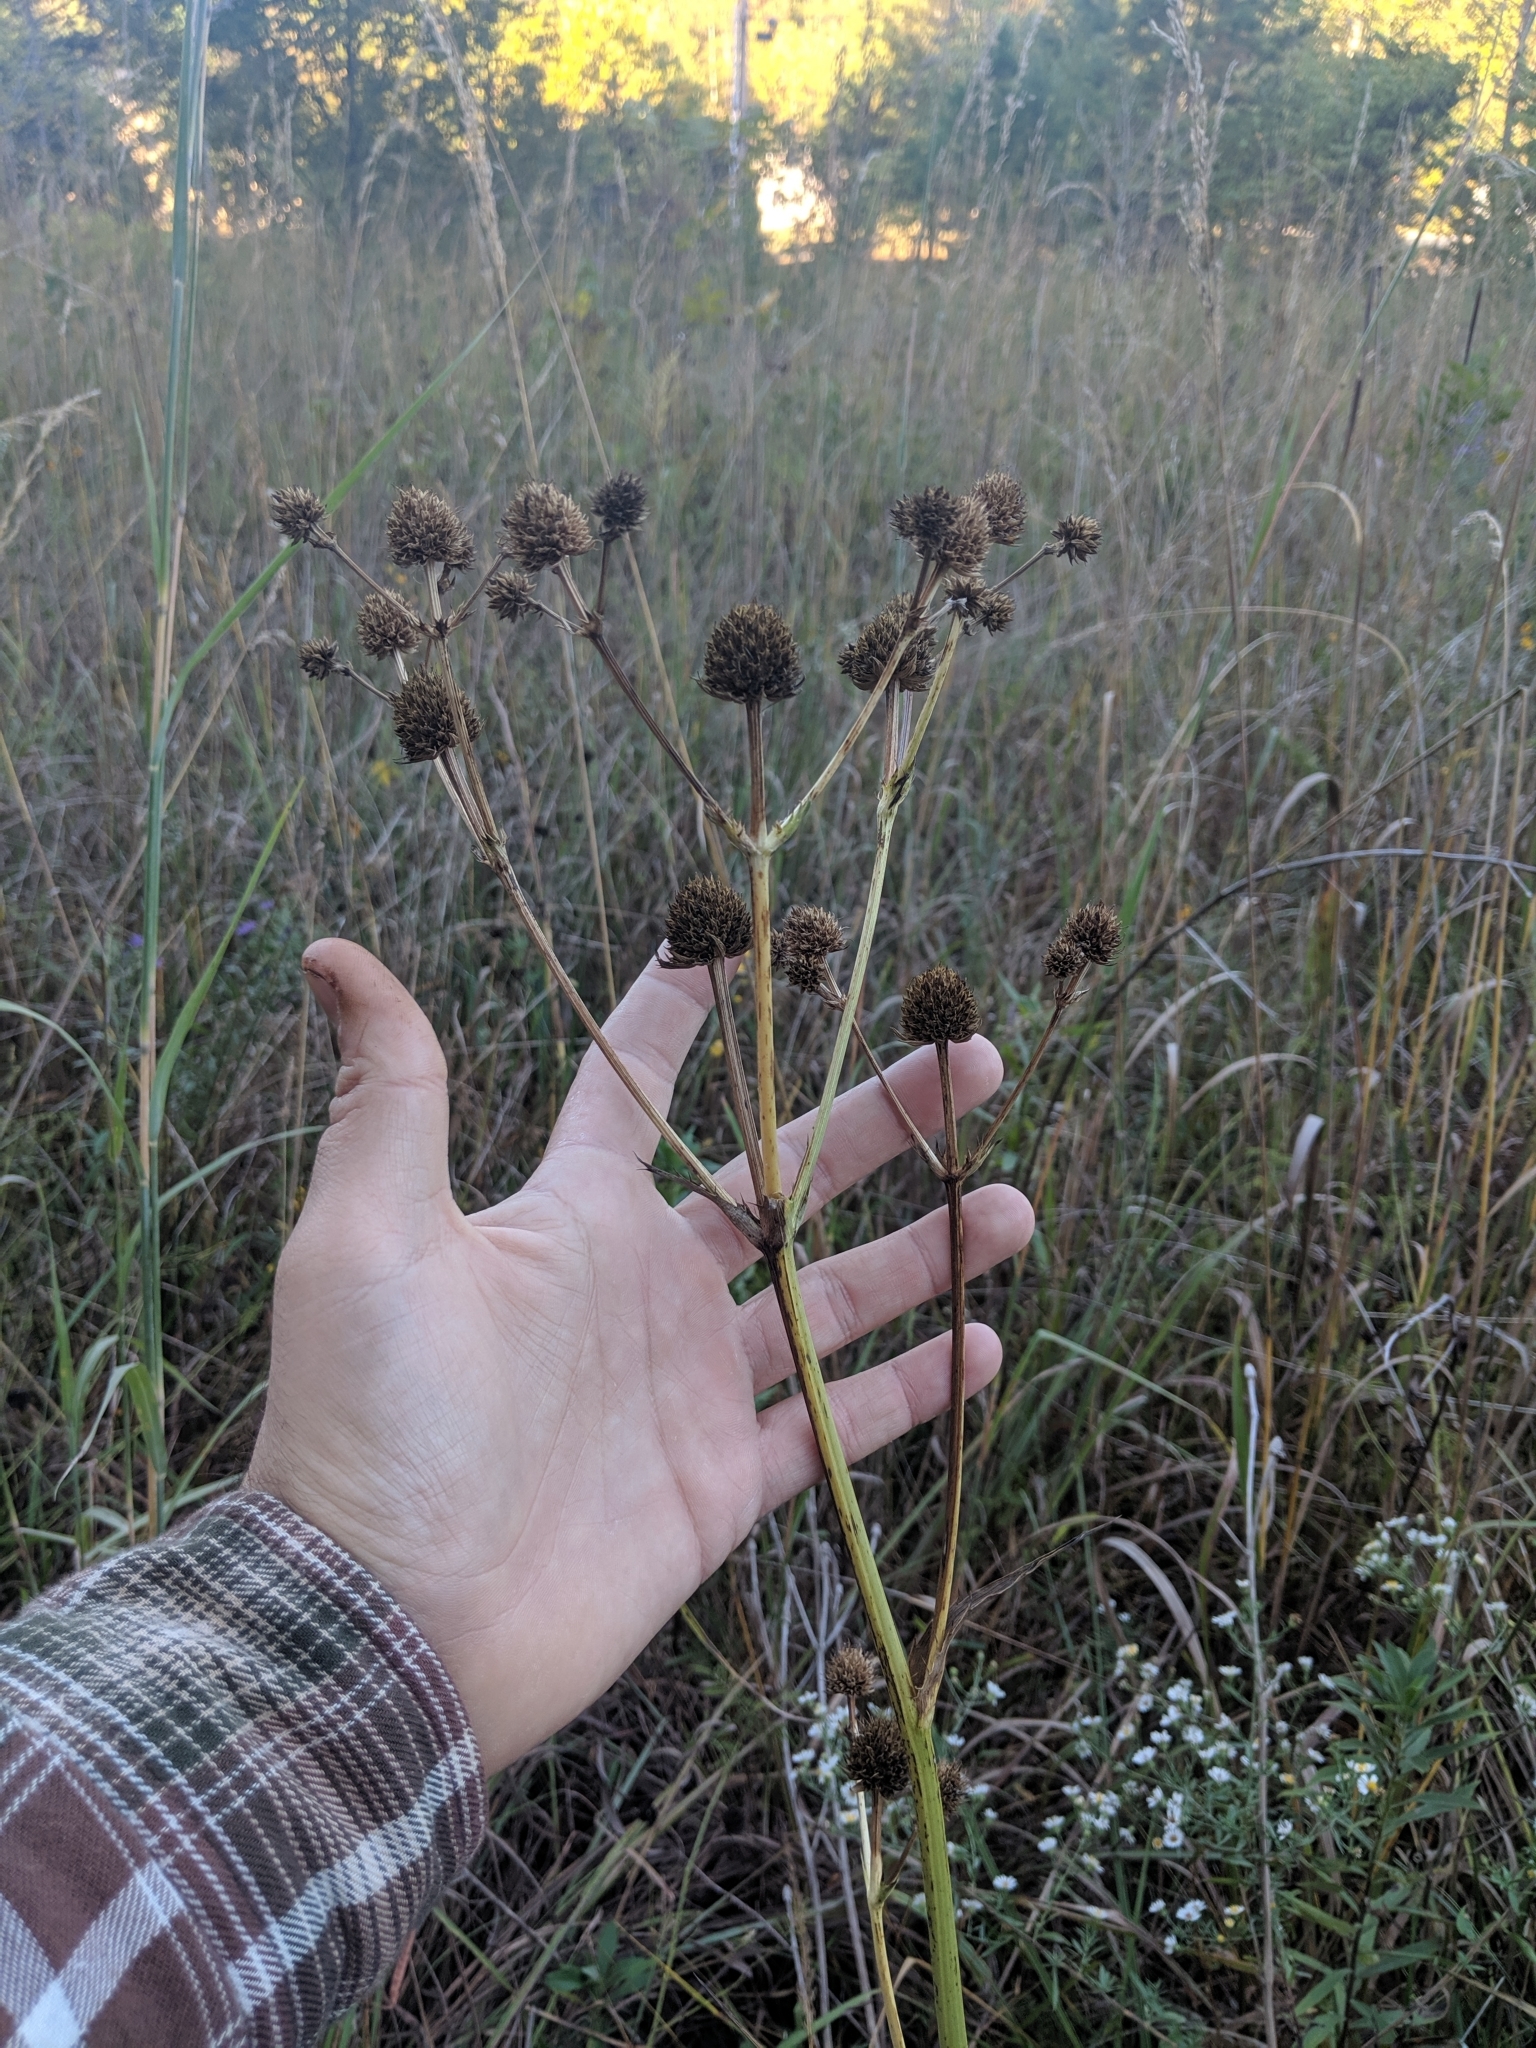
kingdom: Plantae
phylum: Tracheophyta
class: Magnoliopsida
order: Apiales
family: Apiaceae
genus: Eryngium
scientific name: Eryngium yuccifolium
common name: Button eryngo
